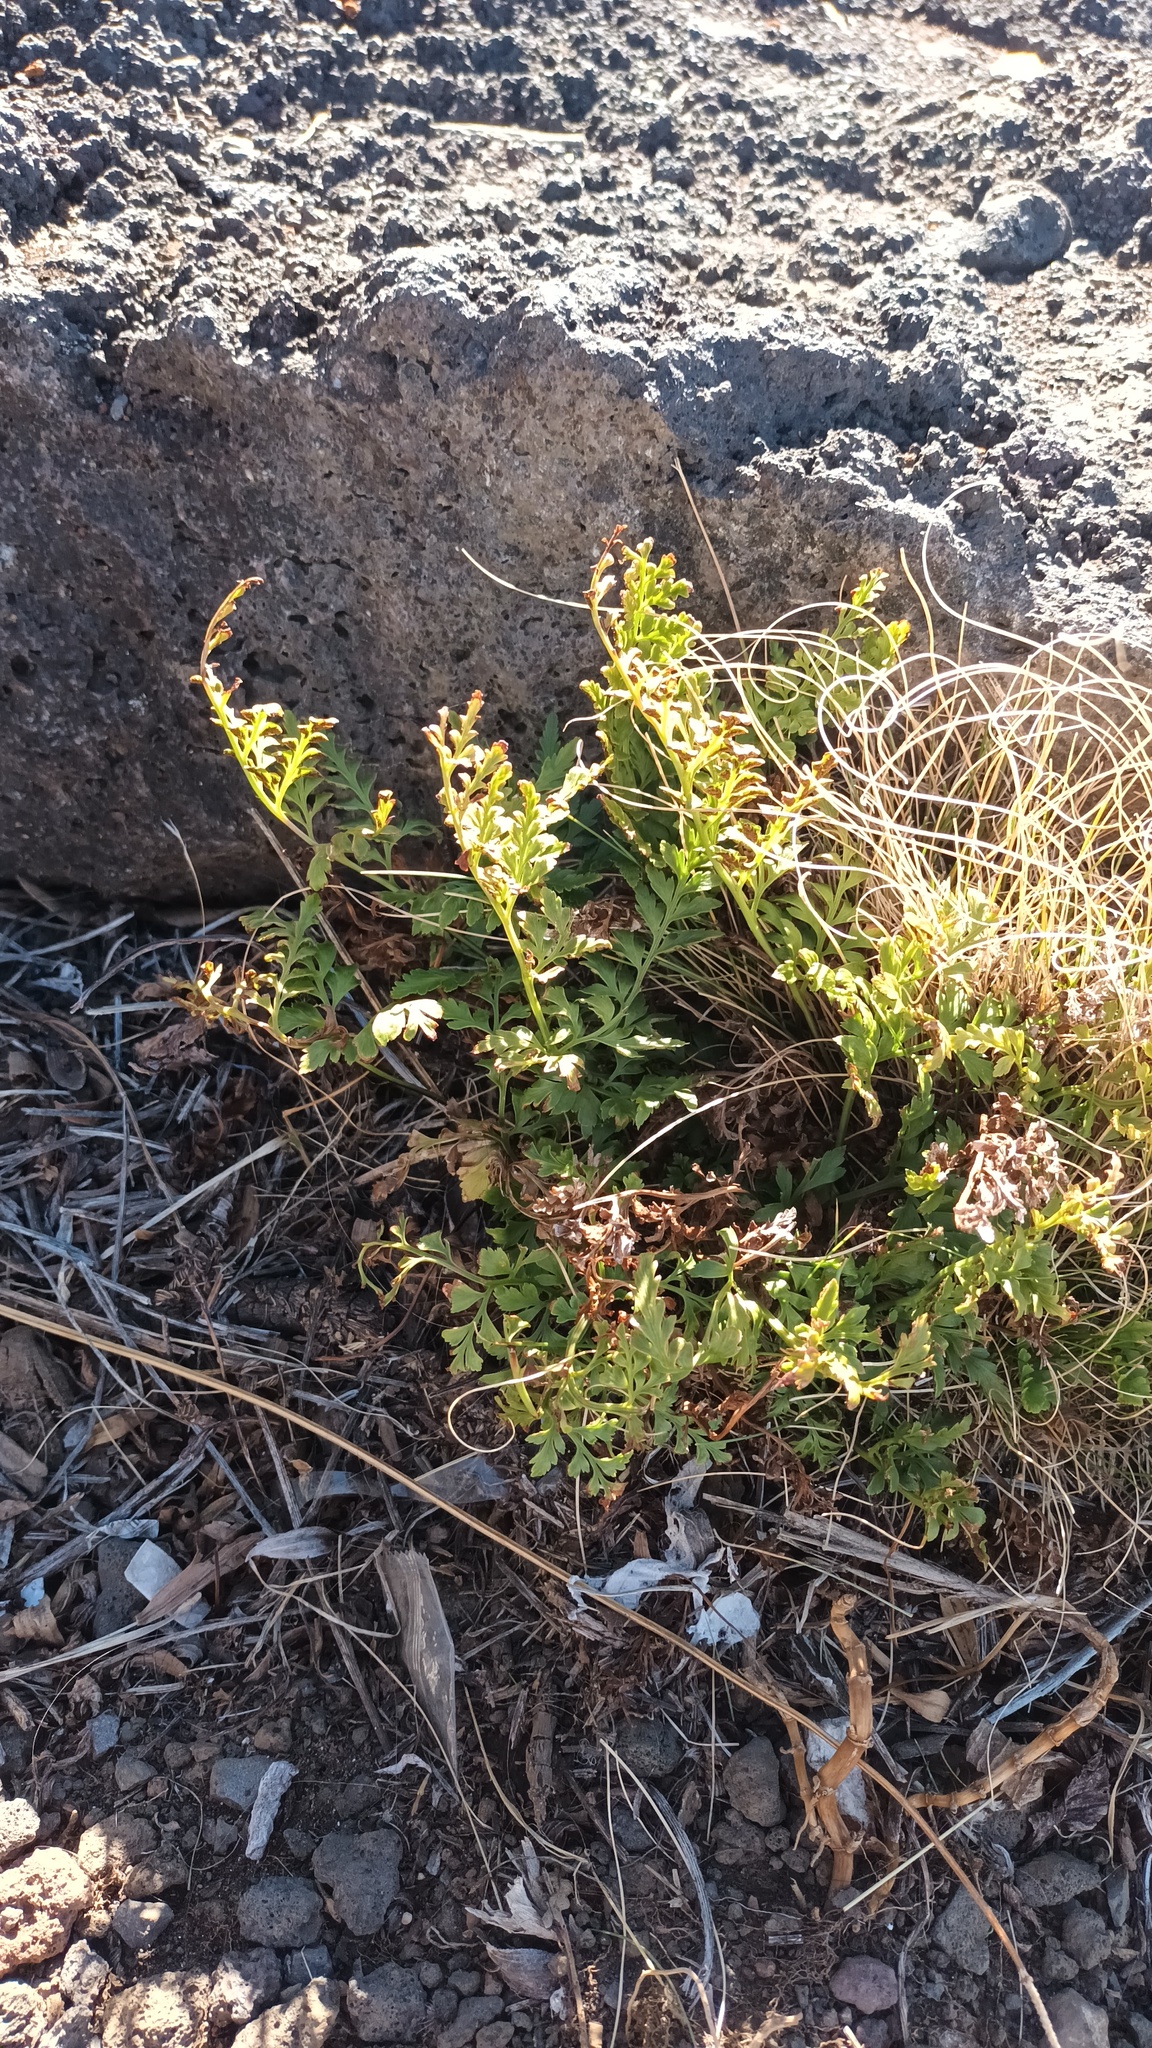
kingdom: Plantae
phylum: Tracheophyta
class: Polypodiopsida
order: Polypodiales
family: Aspleniaceae
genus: Asplenium
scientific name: Asplenium adiantum-nigrum
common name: Black spleenwort
